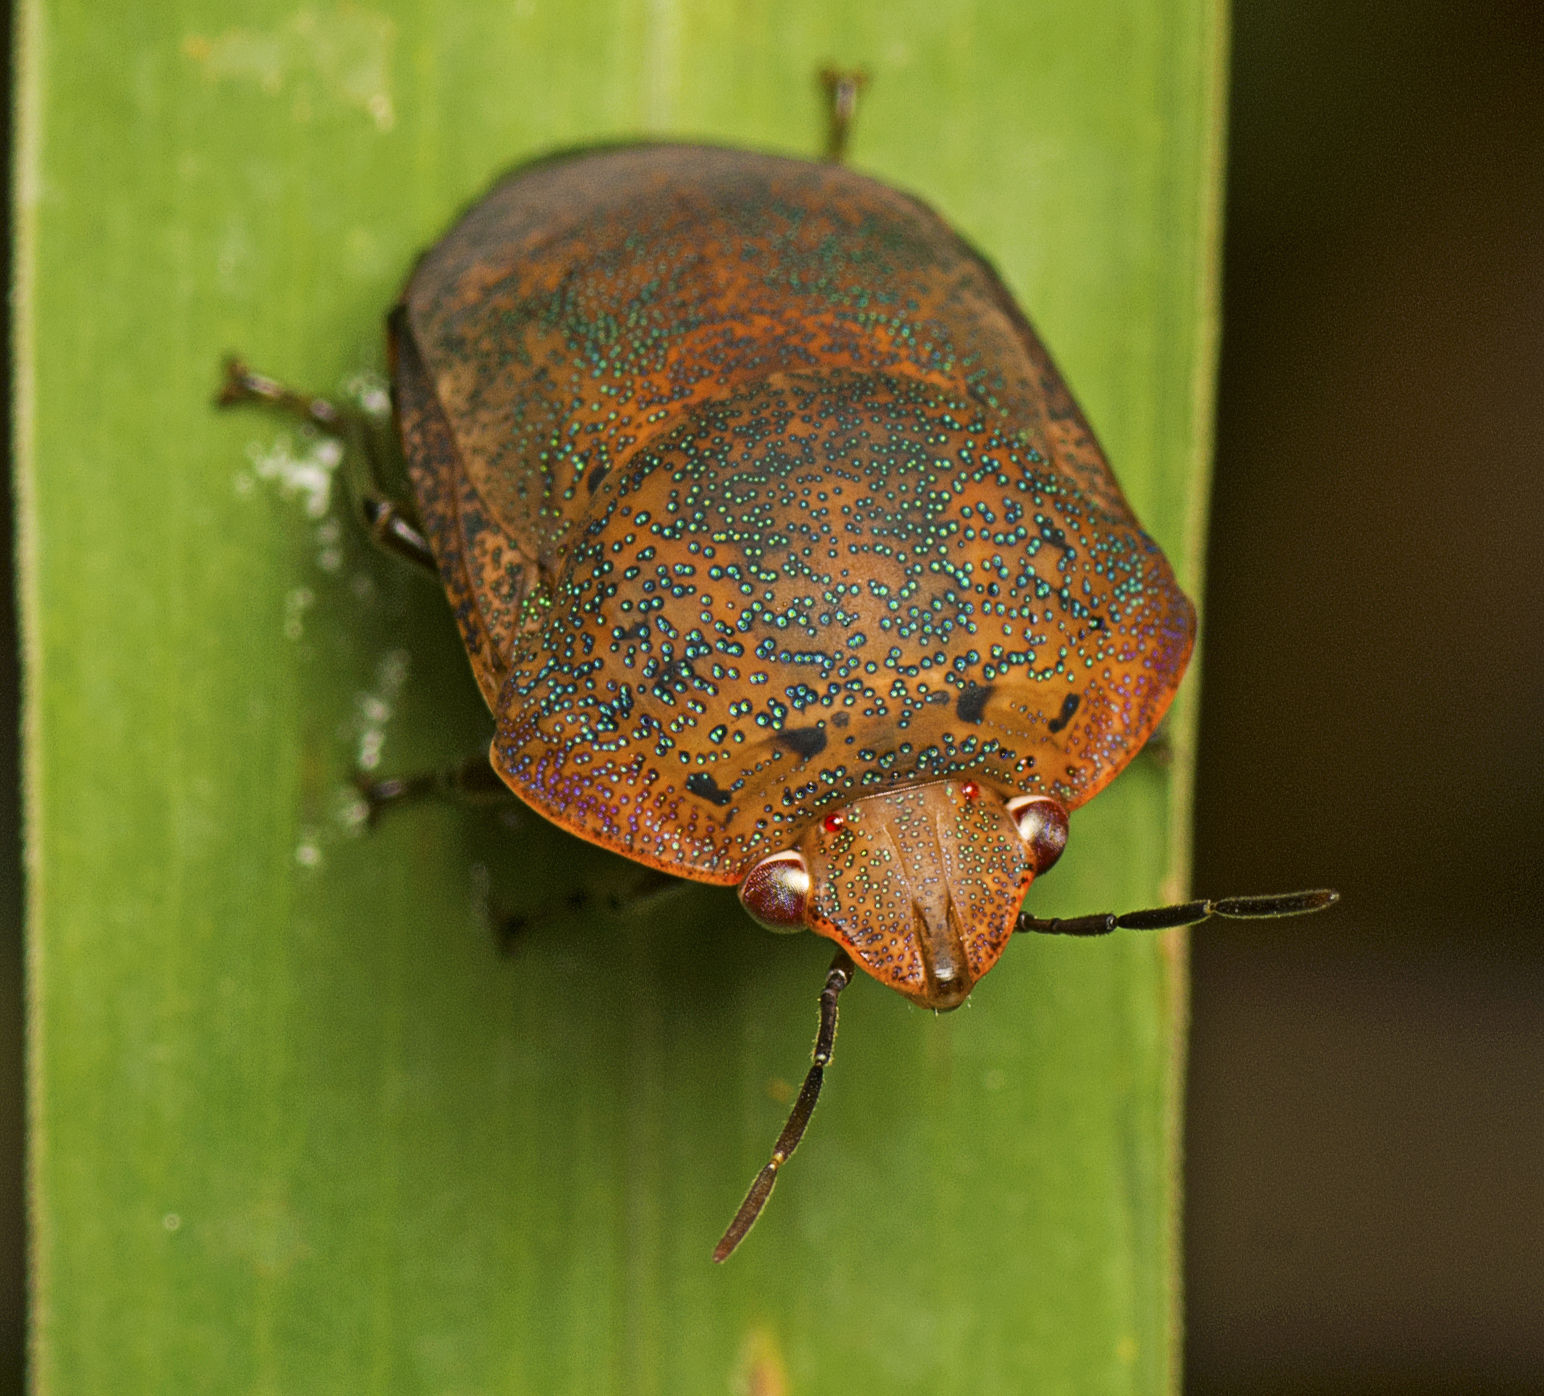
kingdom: Animalia
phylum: Arthropoda
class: Insecta
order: Hemiptera
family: Pentatomidae
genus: Coleotichus
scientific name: Coleotichus artensis
